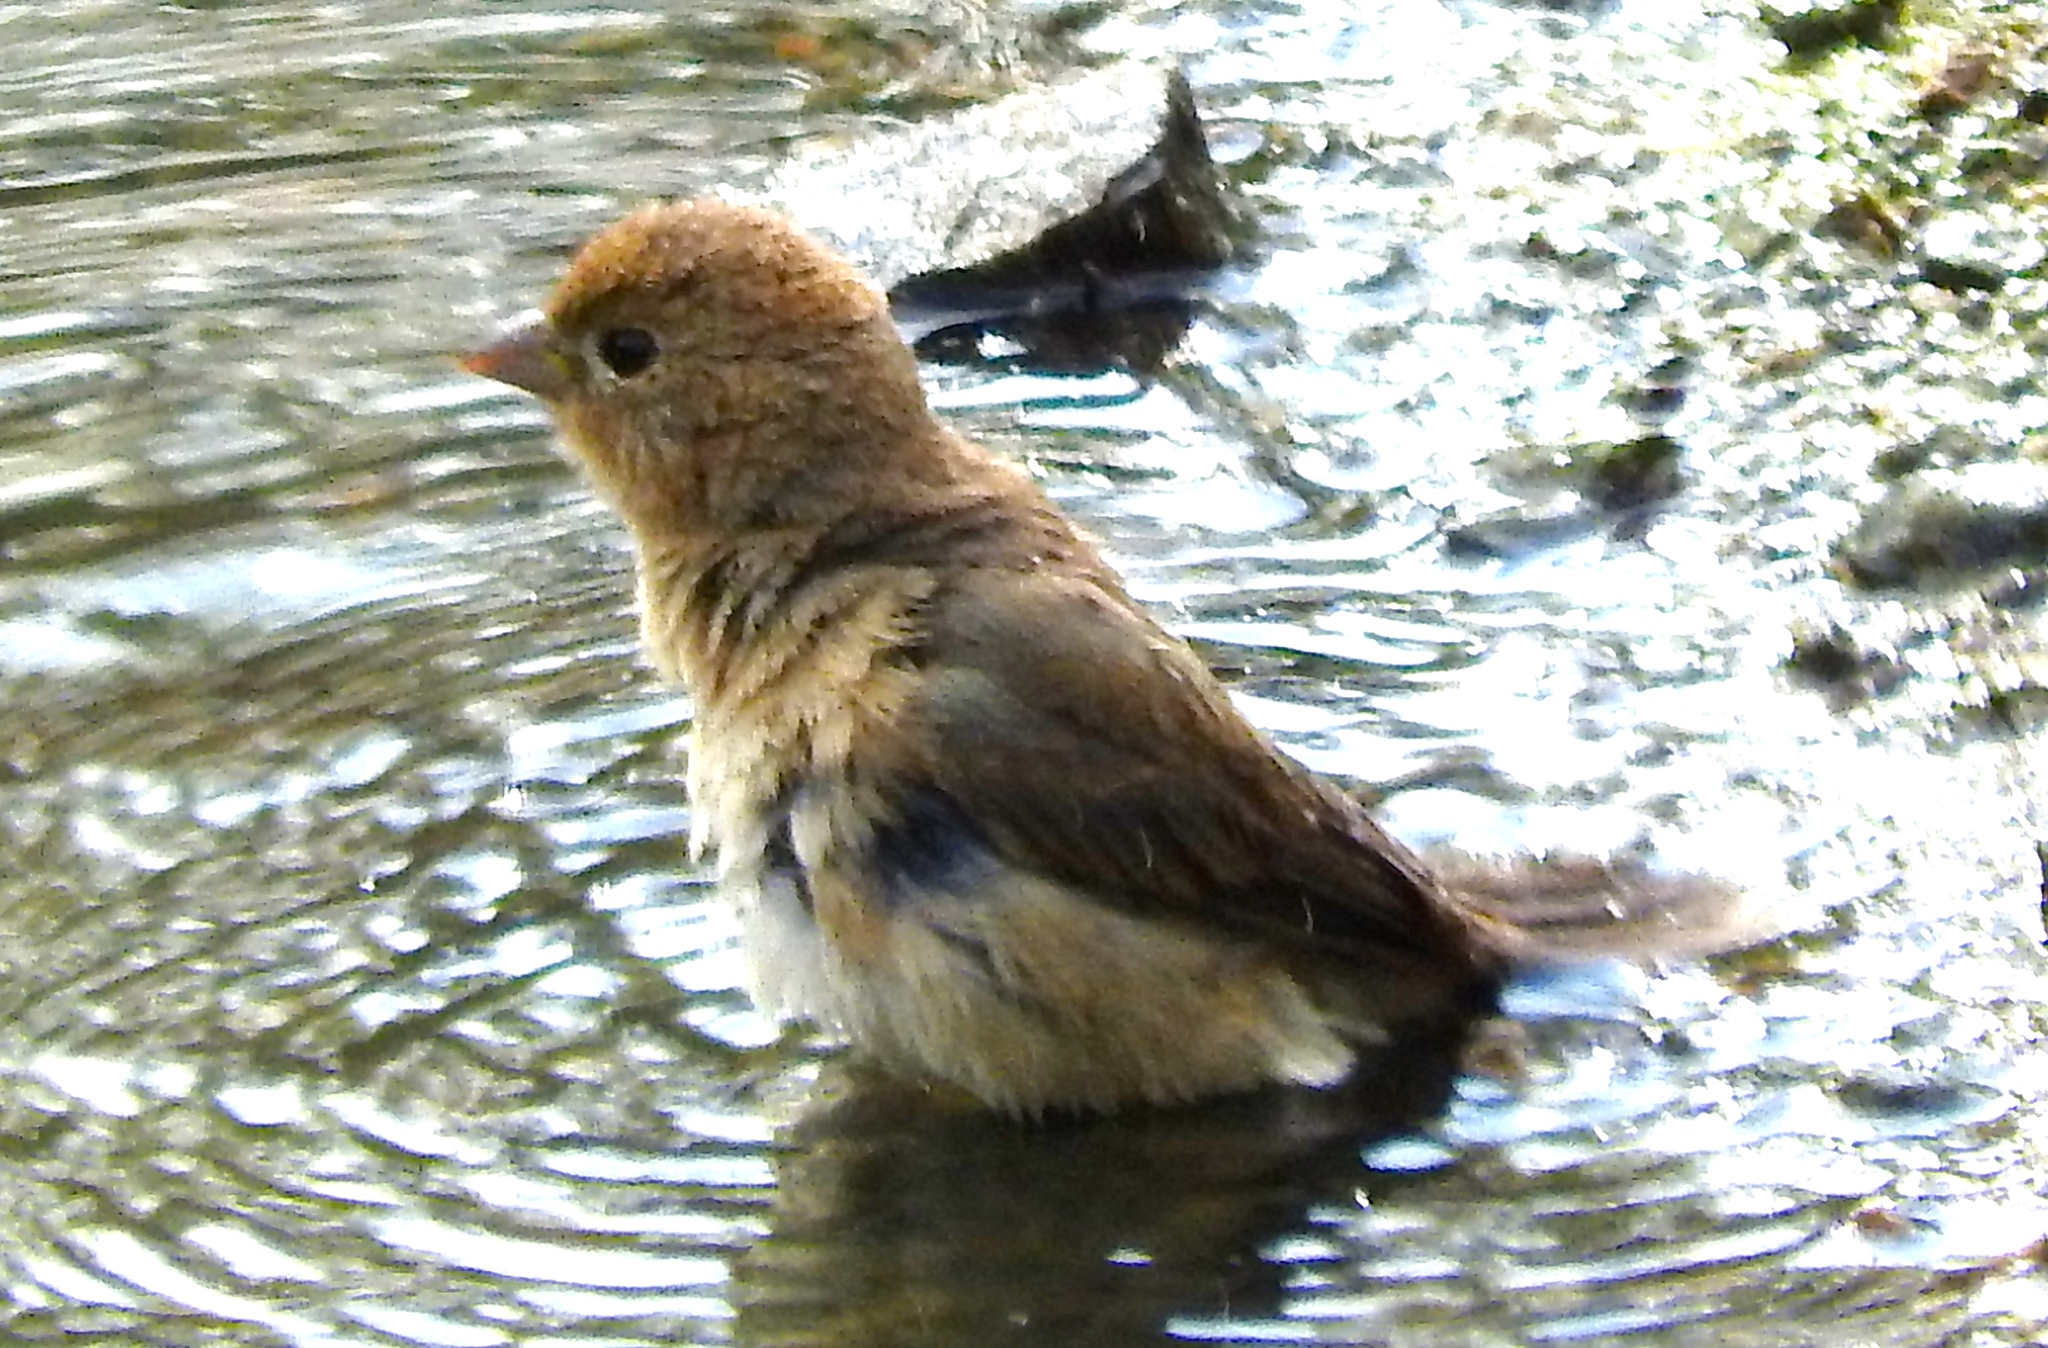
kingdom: Animalia
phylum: Chordata
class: Aves
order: Passeriformes
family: Cardinalidae
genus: Passerina
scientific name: Passerina versicolor
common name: Varied bunting
